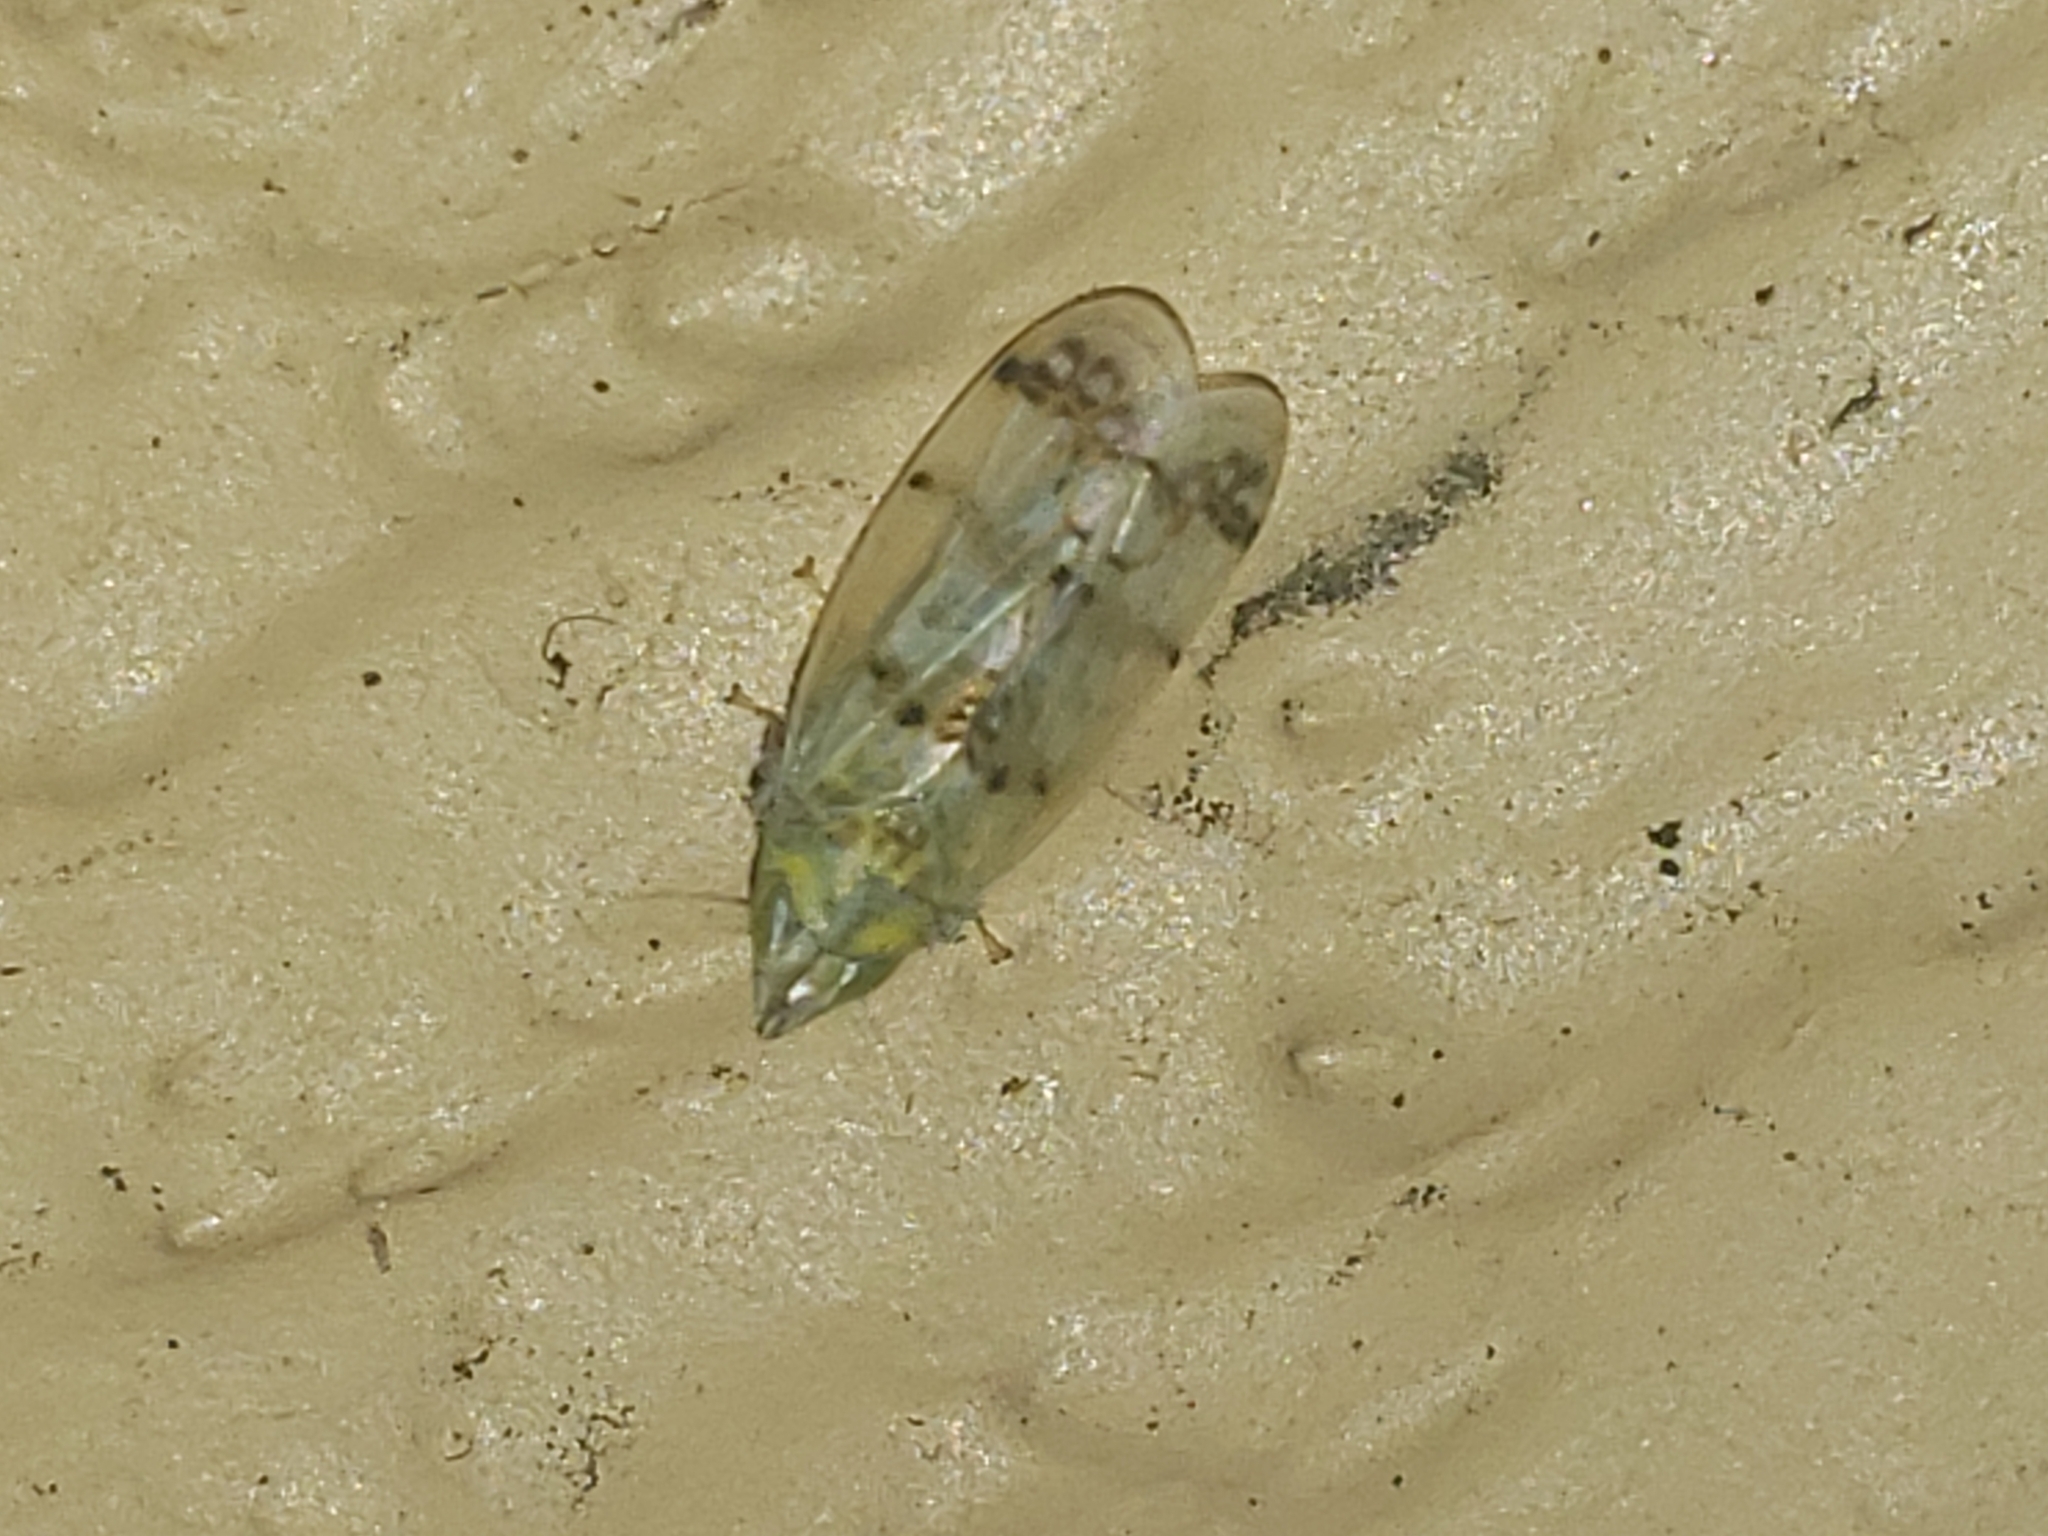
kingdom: Animalia
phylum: Arthropoda
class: Insecta
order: Hemiptera
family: Cicadellidae
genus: Japananus
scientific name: Japananus hyalinus
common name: The japanese maple leafhopper
